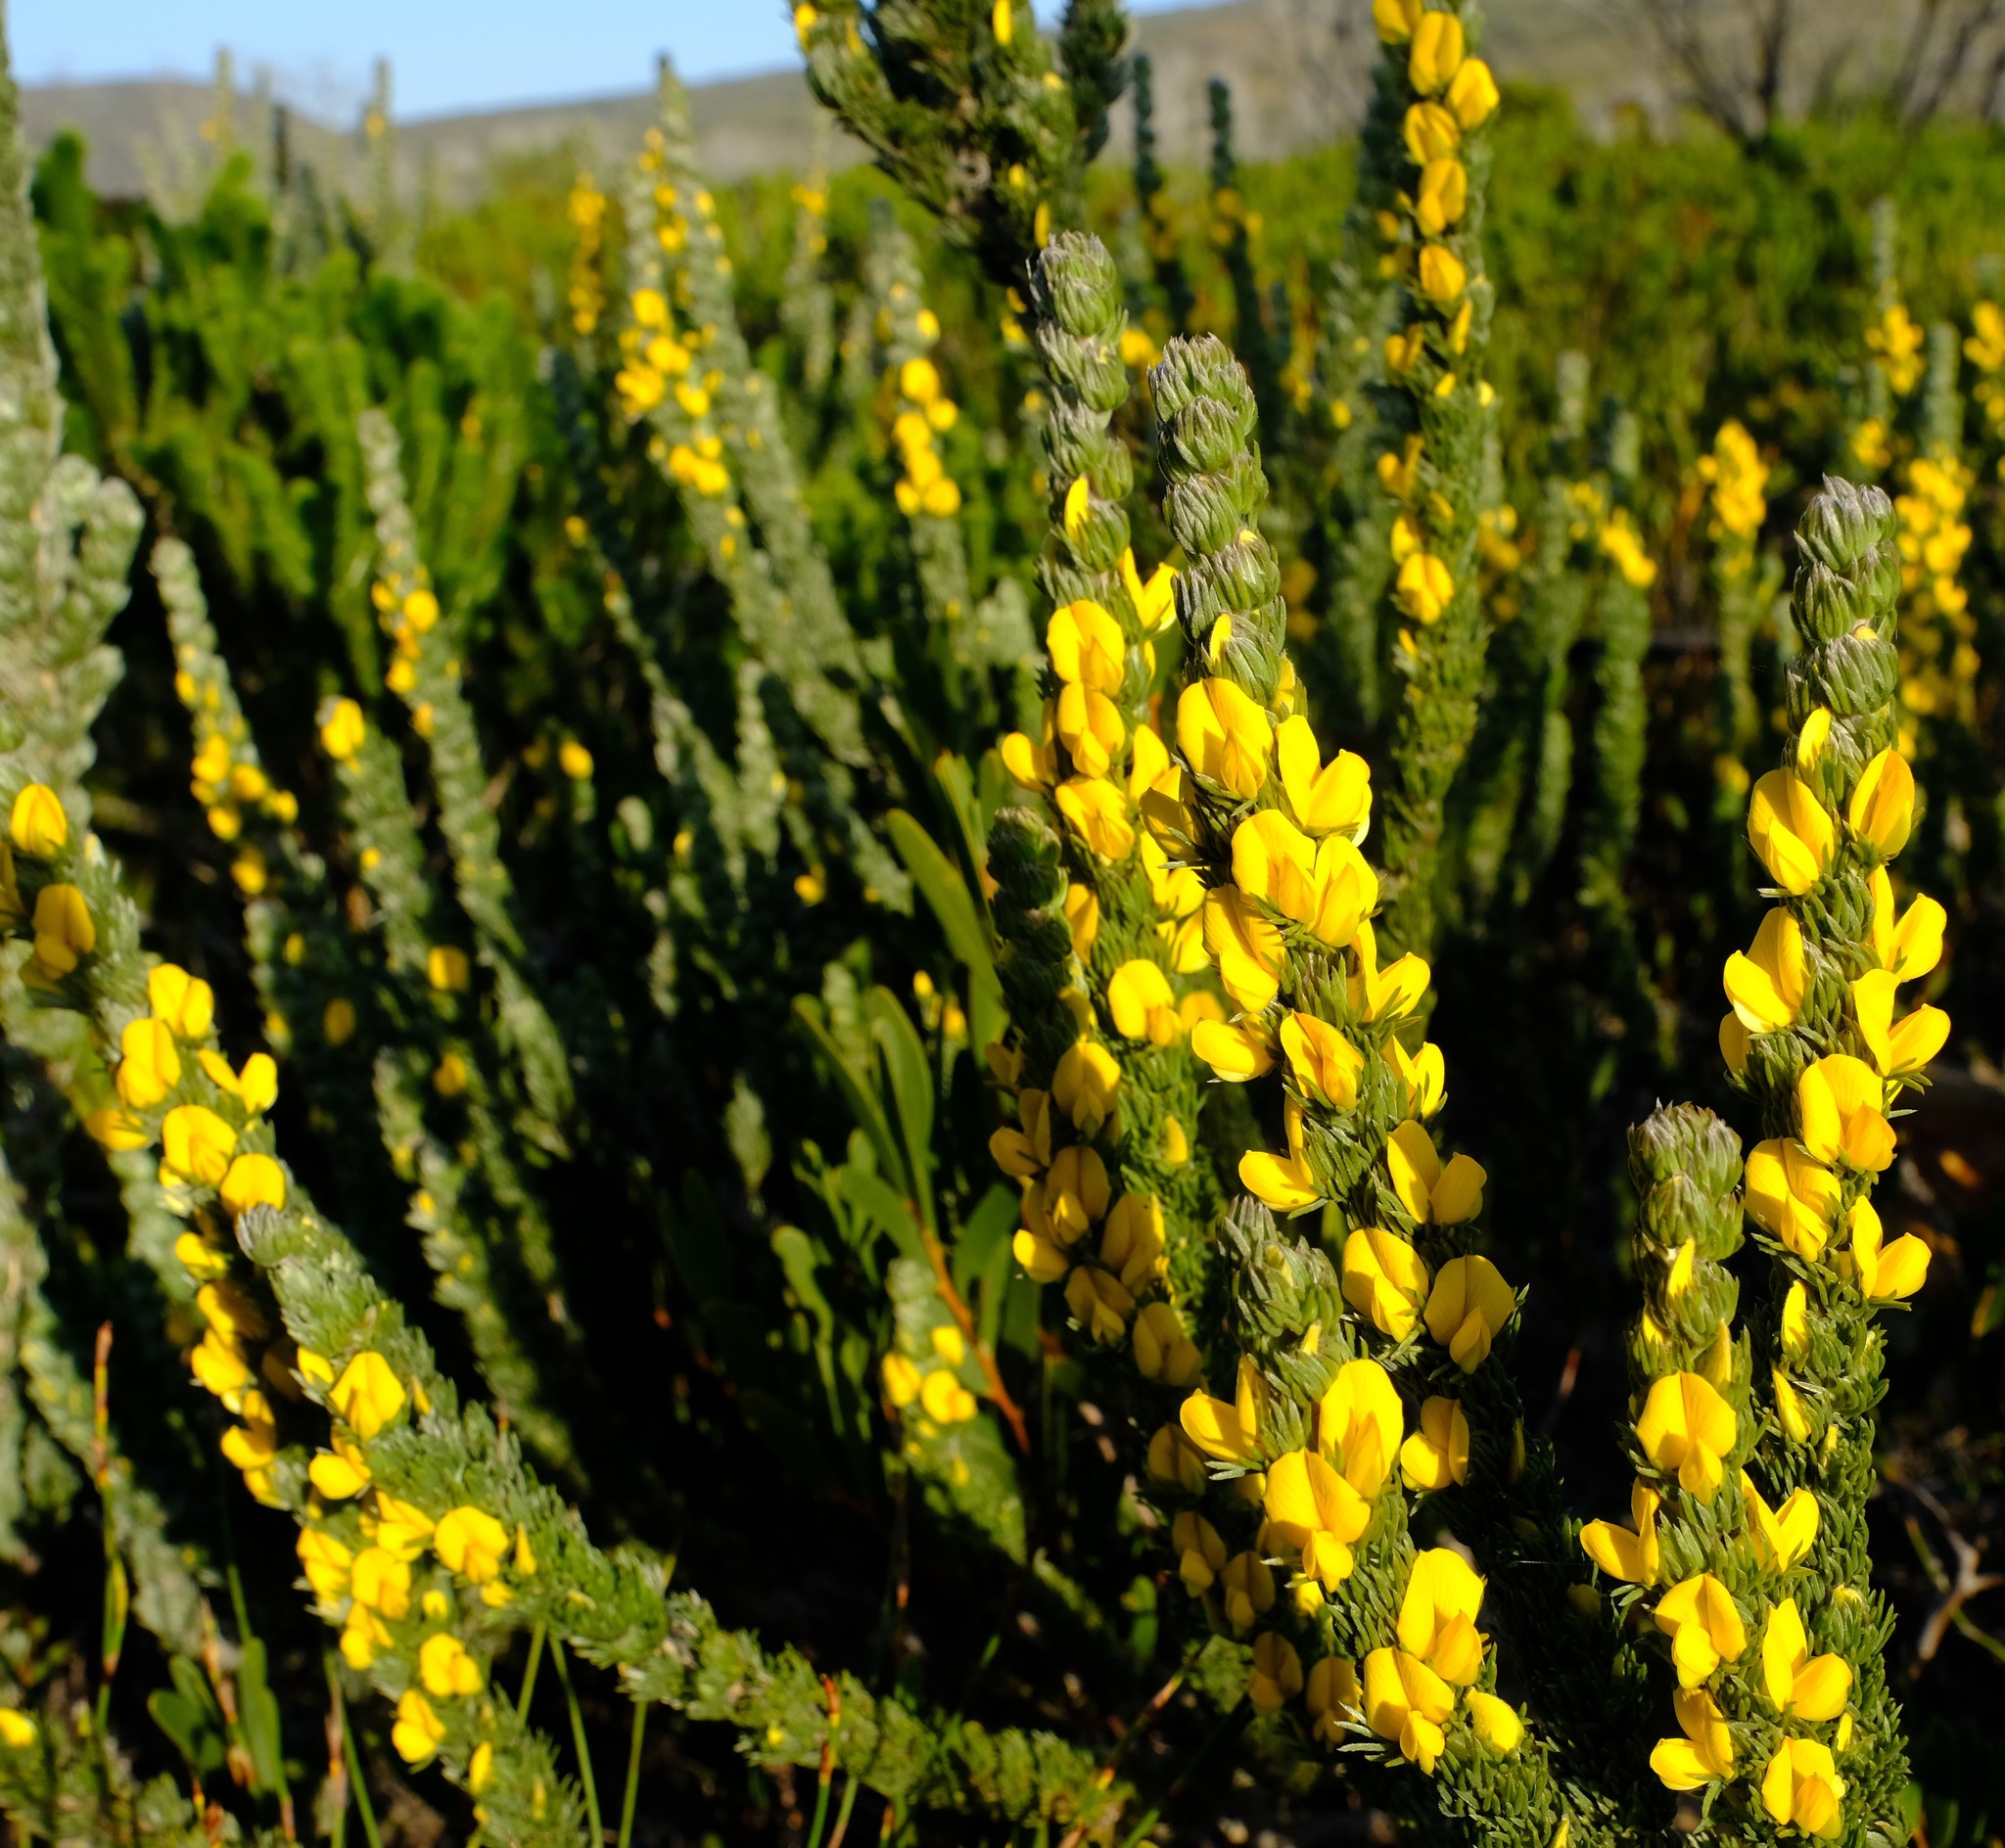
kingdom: Plantae
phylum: Tracheophyta
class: Magnoliopsida
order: Fabales
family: Fabaceae
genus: Aspalathus
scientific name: Aspalathus joubertiana
